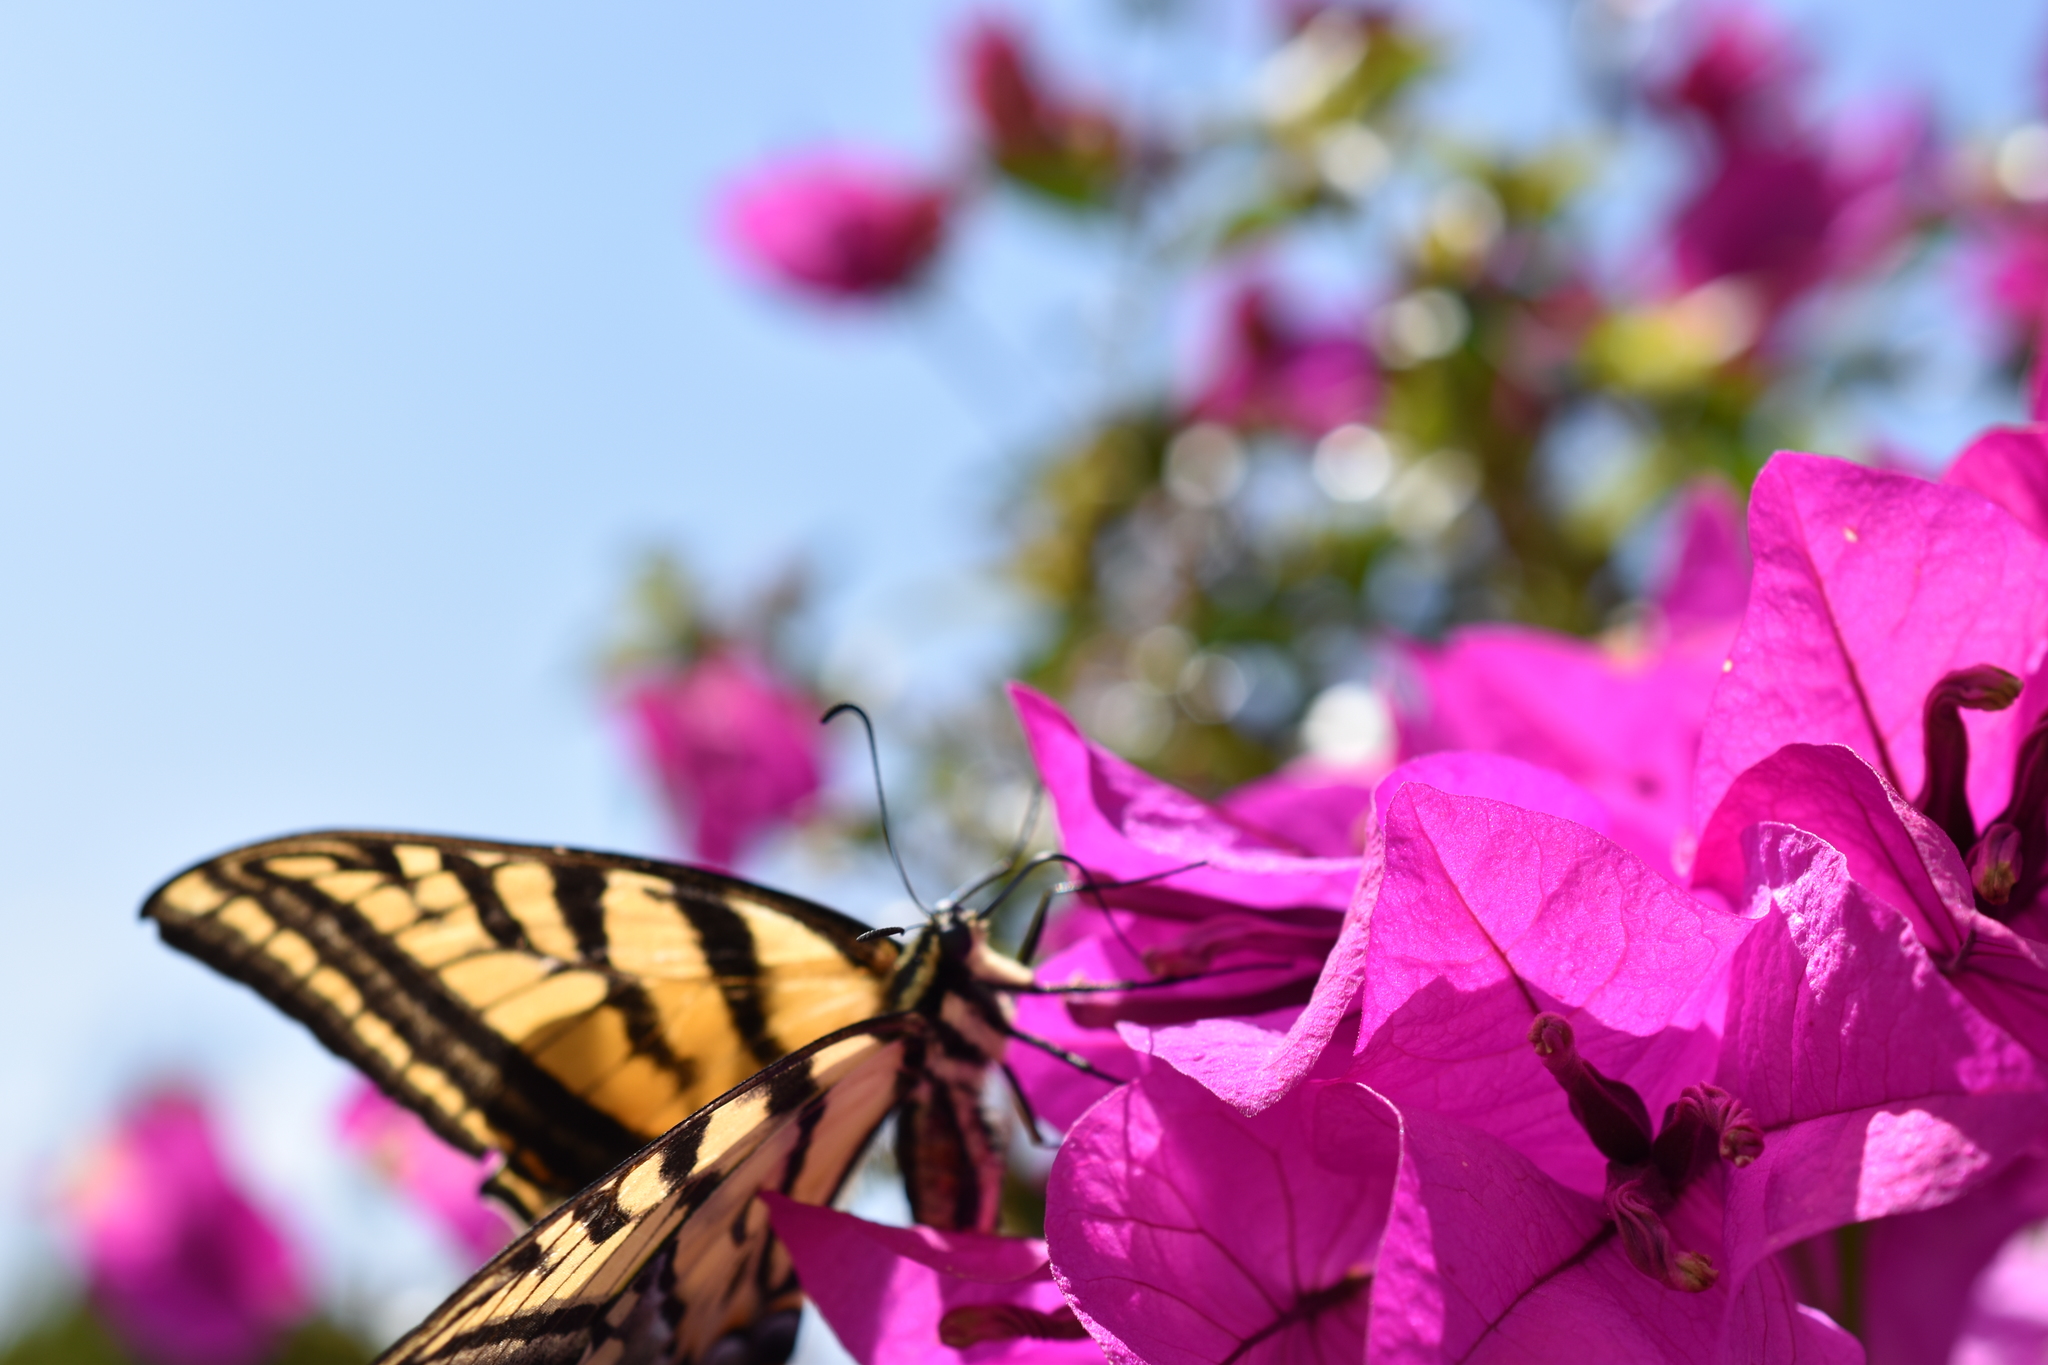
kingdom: Animalia
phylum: Arthropoda
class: Insecta
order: Lepidoptera
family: Papilionidae
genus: Papilio
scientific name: Papilio multicaudata
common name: Two-tailed tiger swallowtail
